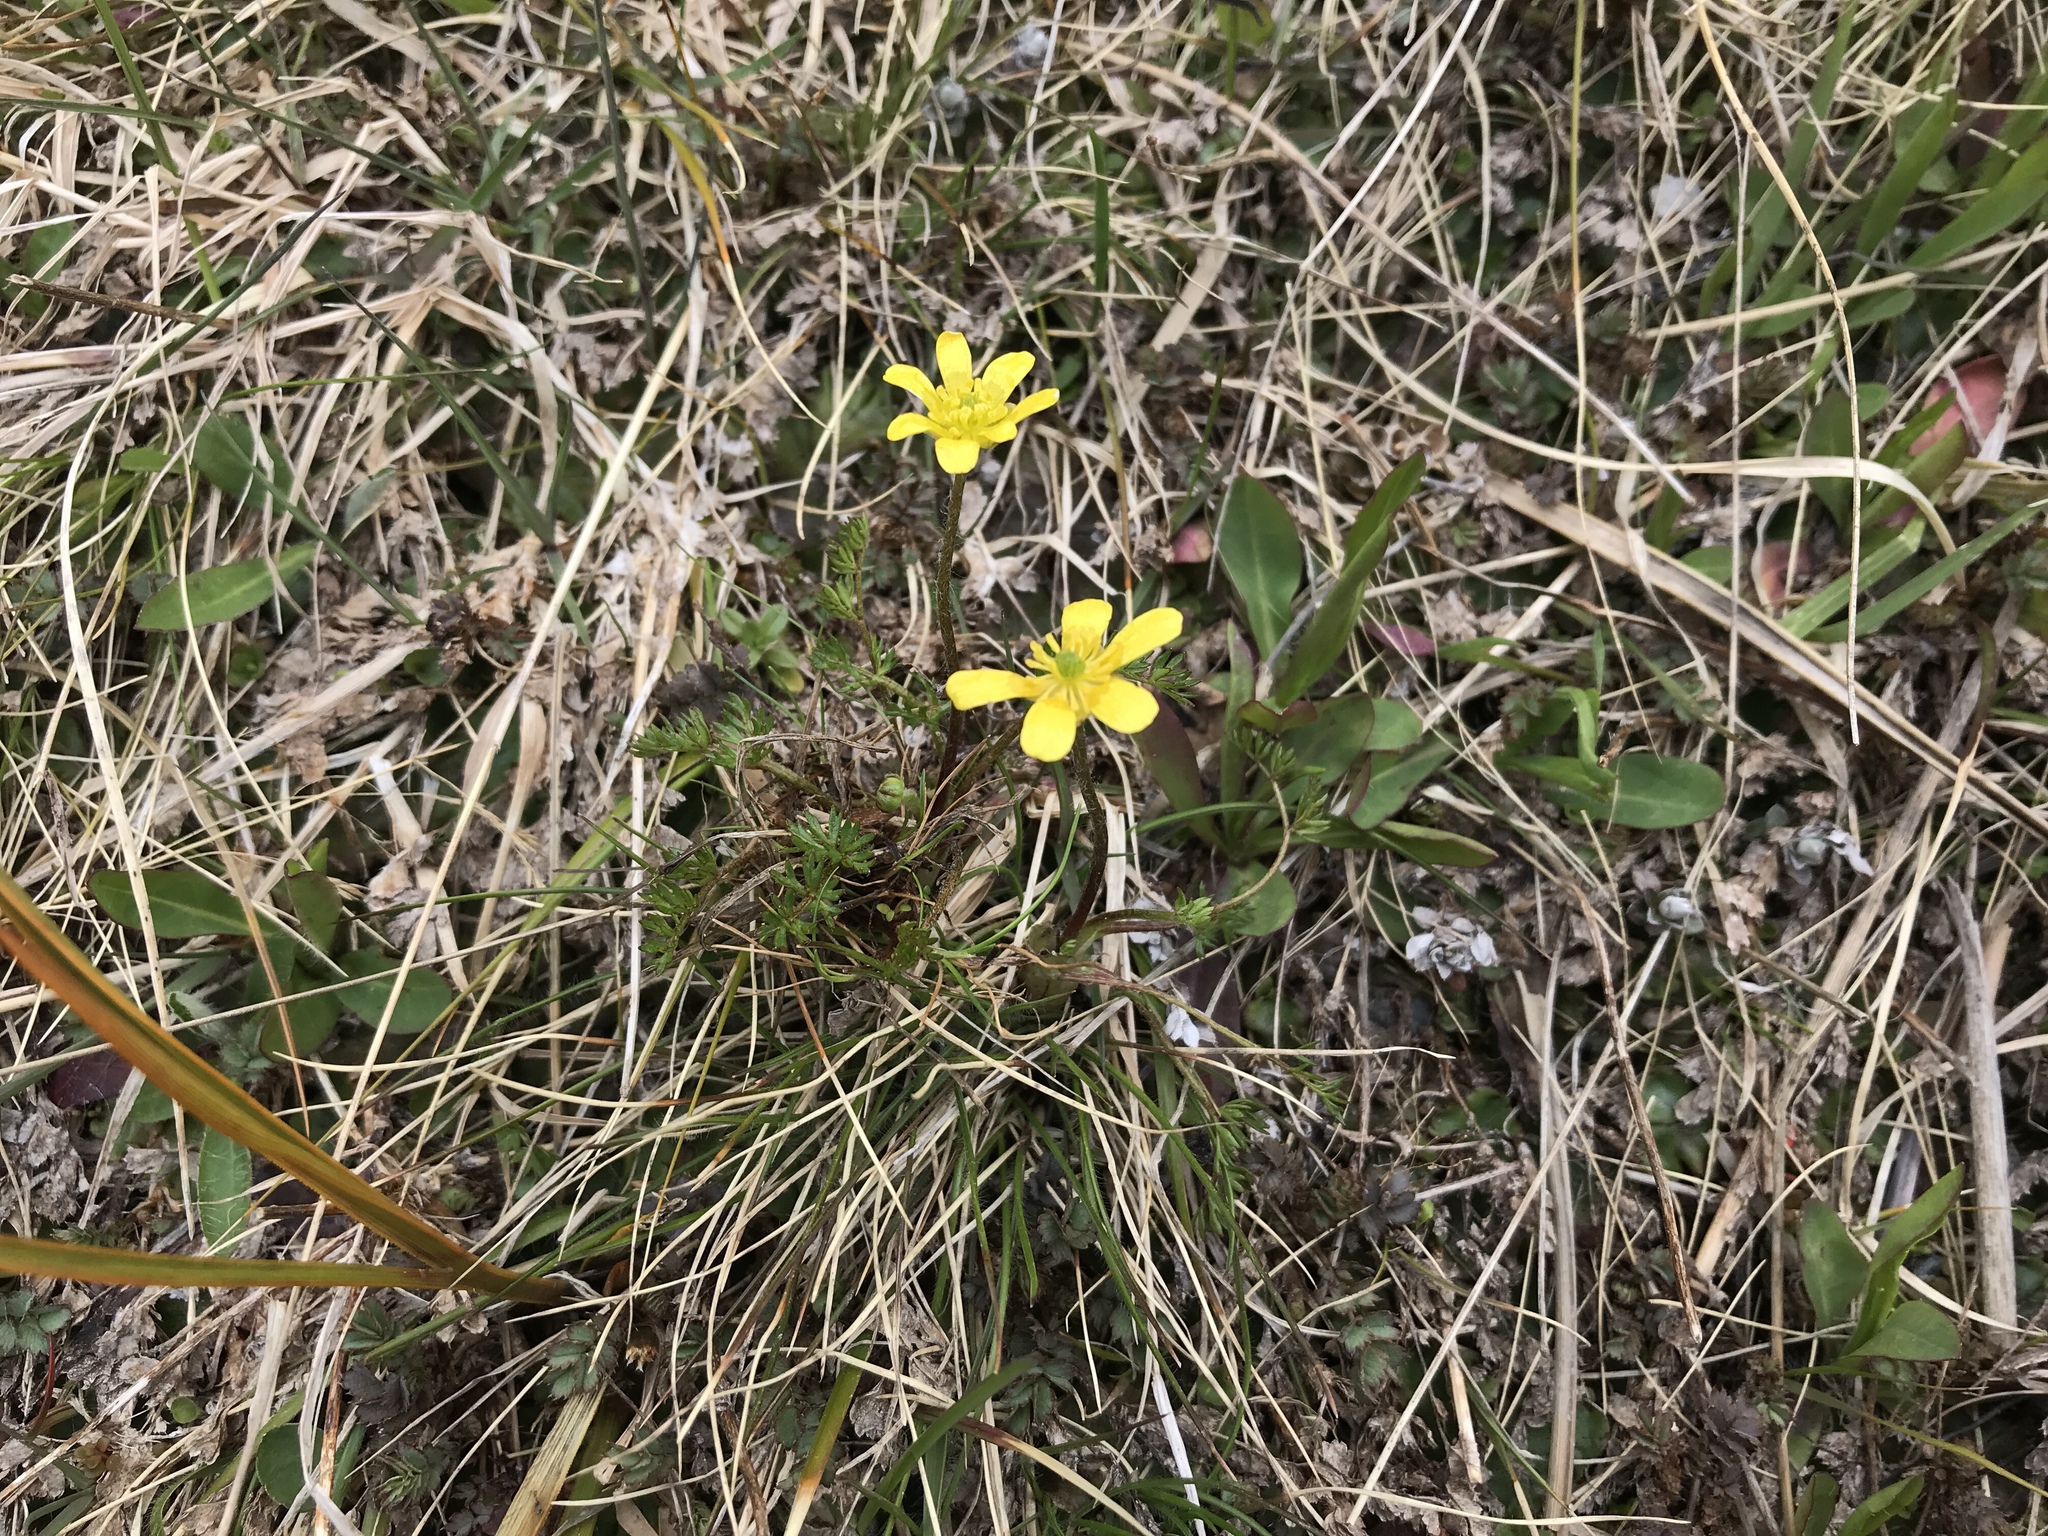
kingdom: Plantae
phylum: Tracheophyta
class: Magnoliopsida
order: Ranunculales
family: Ranunculaceae
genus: Ranunculus
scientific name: Ranunculus gracilipes
